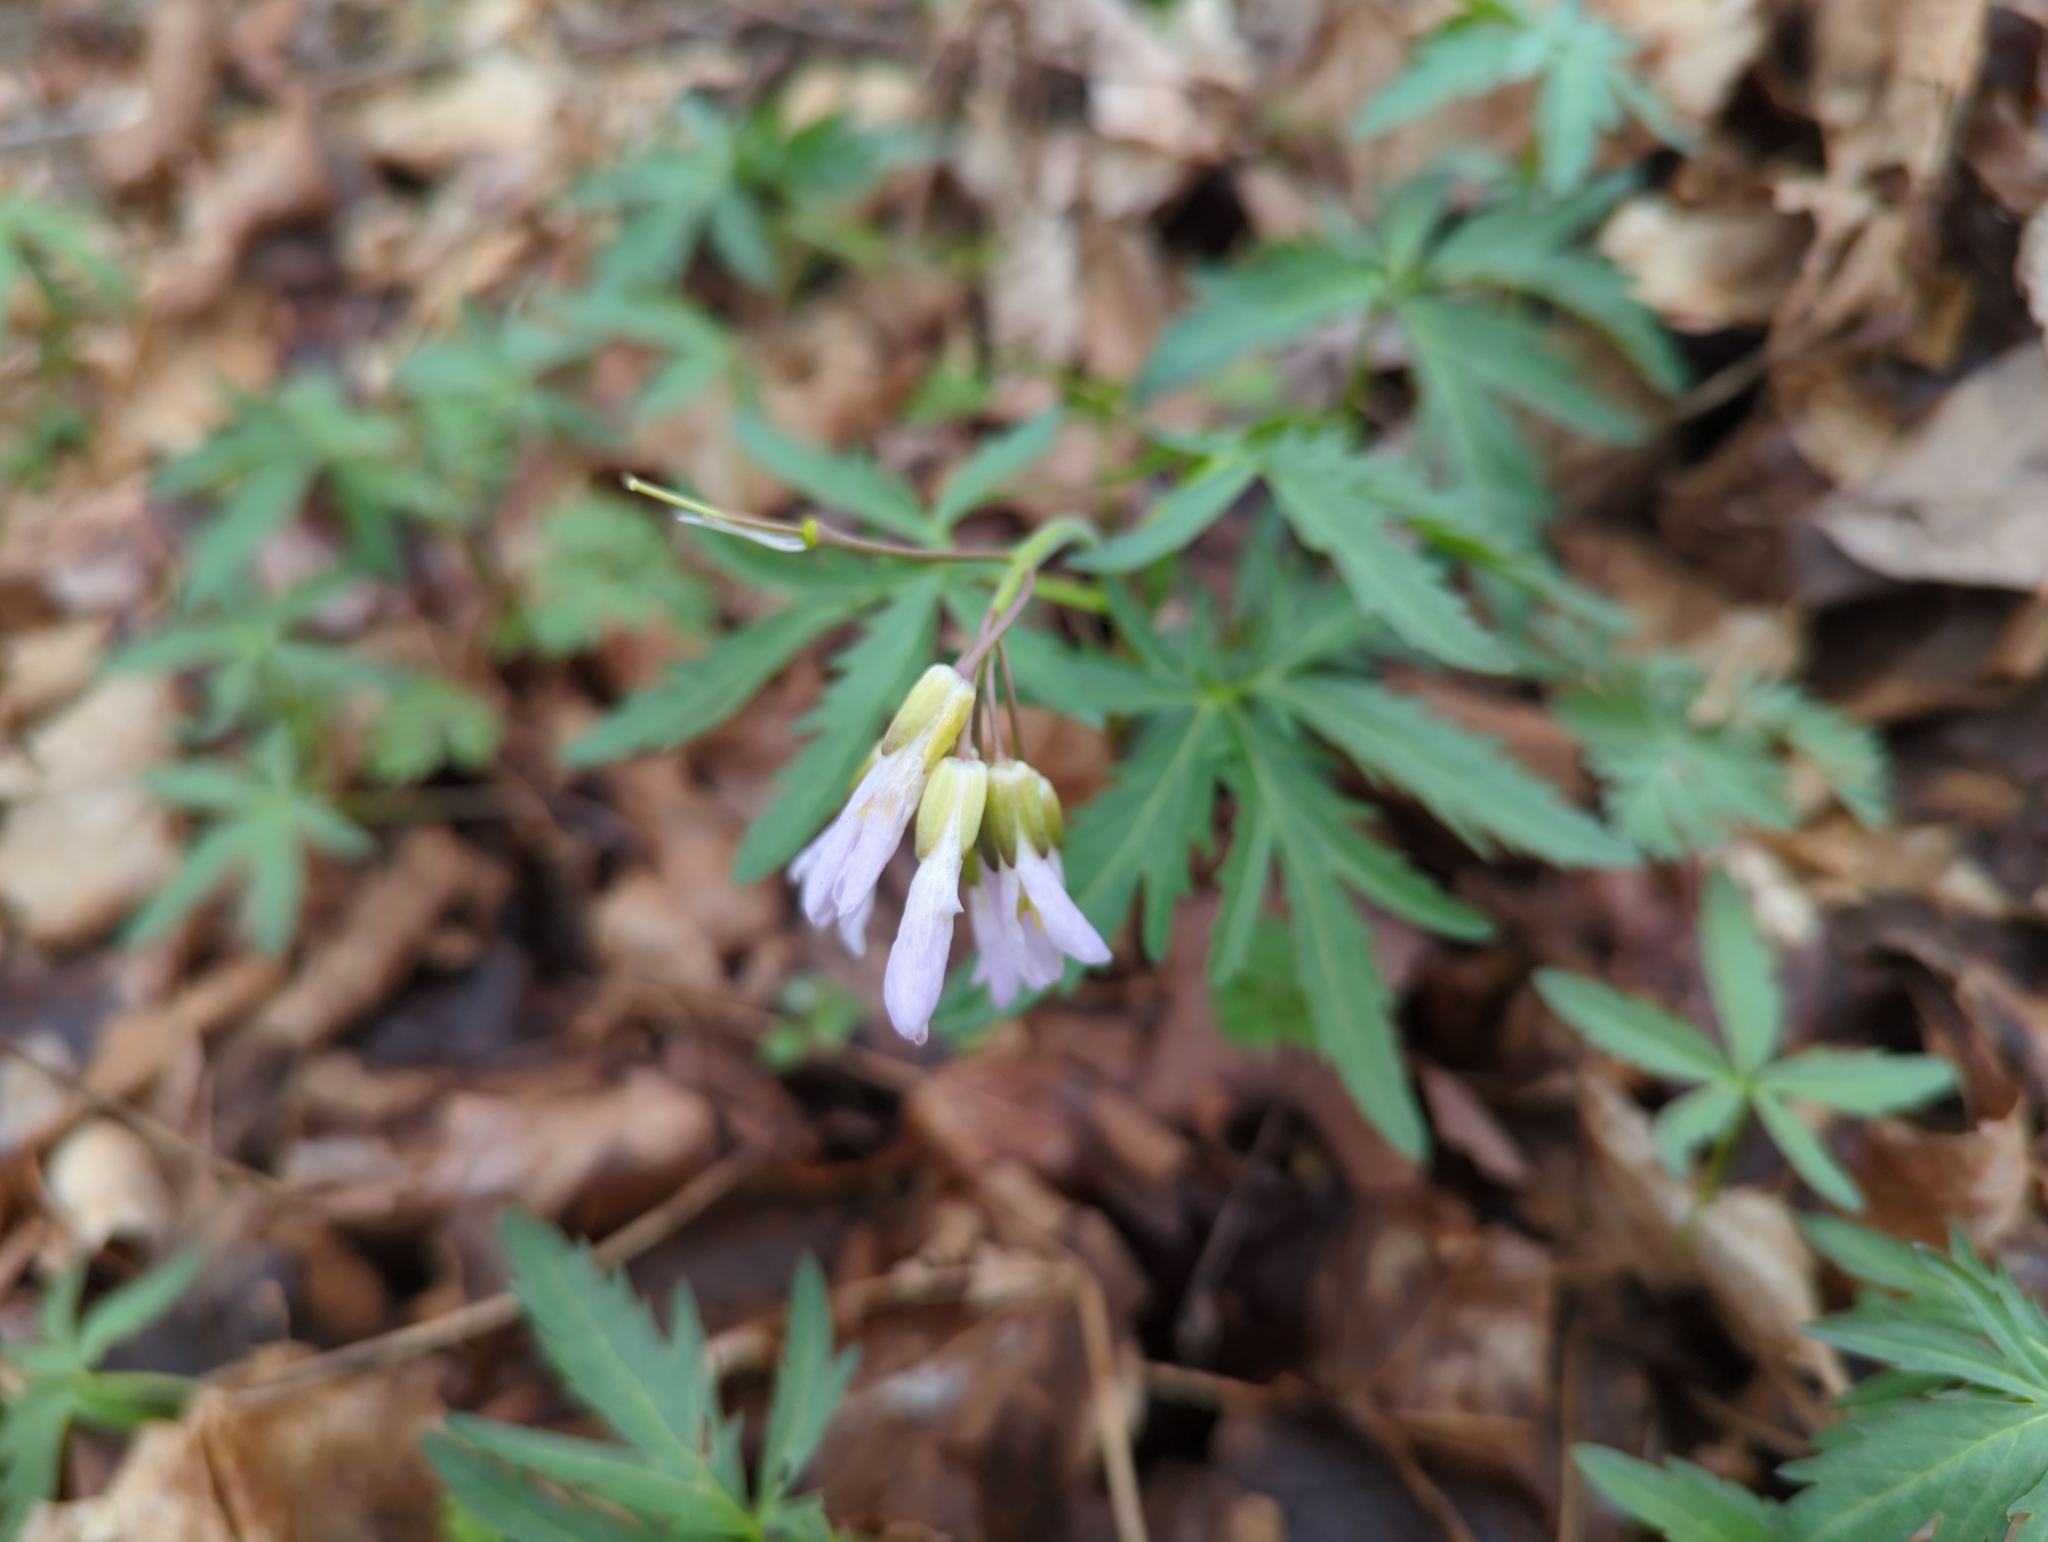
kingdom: Plantae
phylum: Tracheophyta
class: Magnoliopsida
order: Brassicales
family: Brassicaceae
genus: Cardamine
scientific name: Cardamine concatenata
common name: Cut-leaf toothcup
